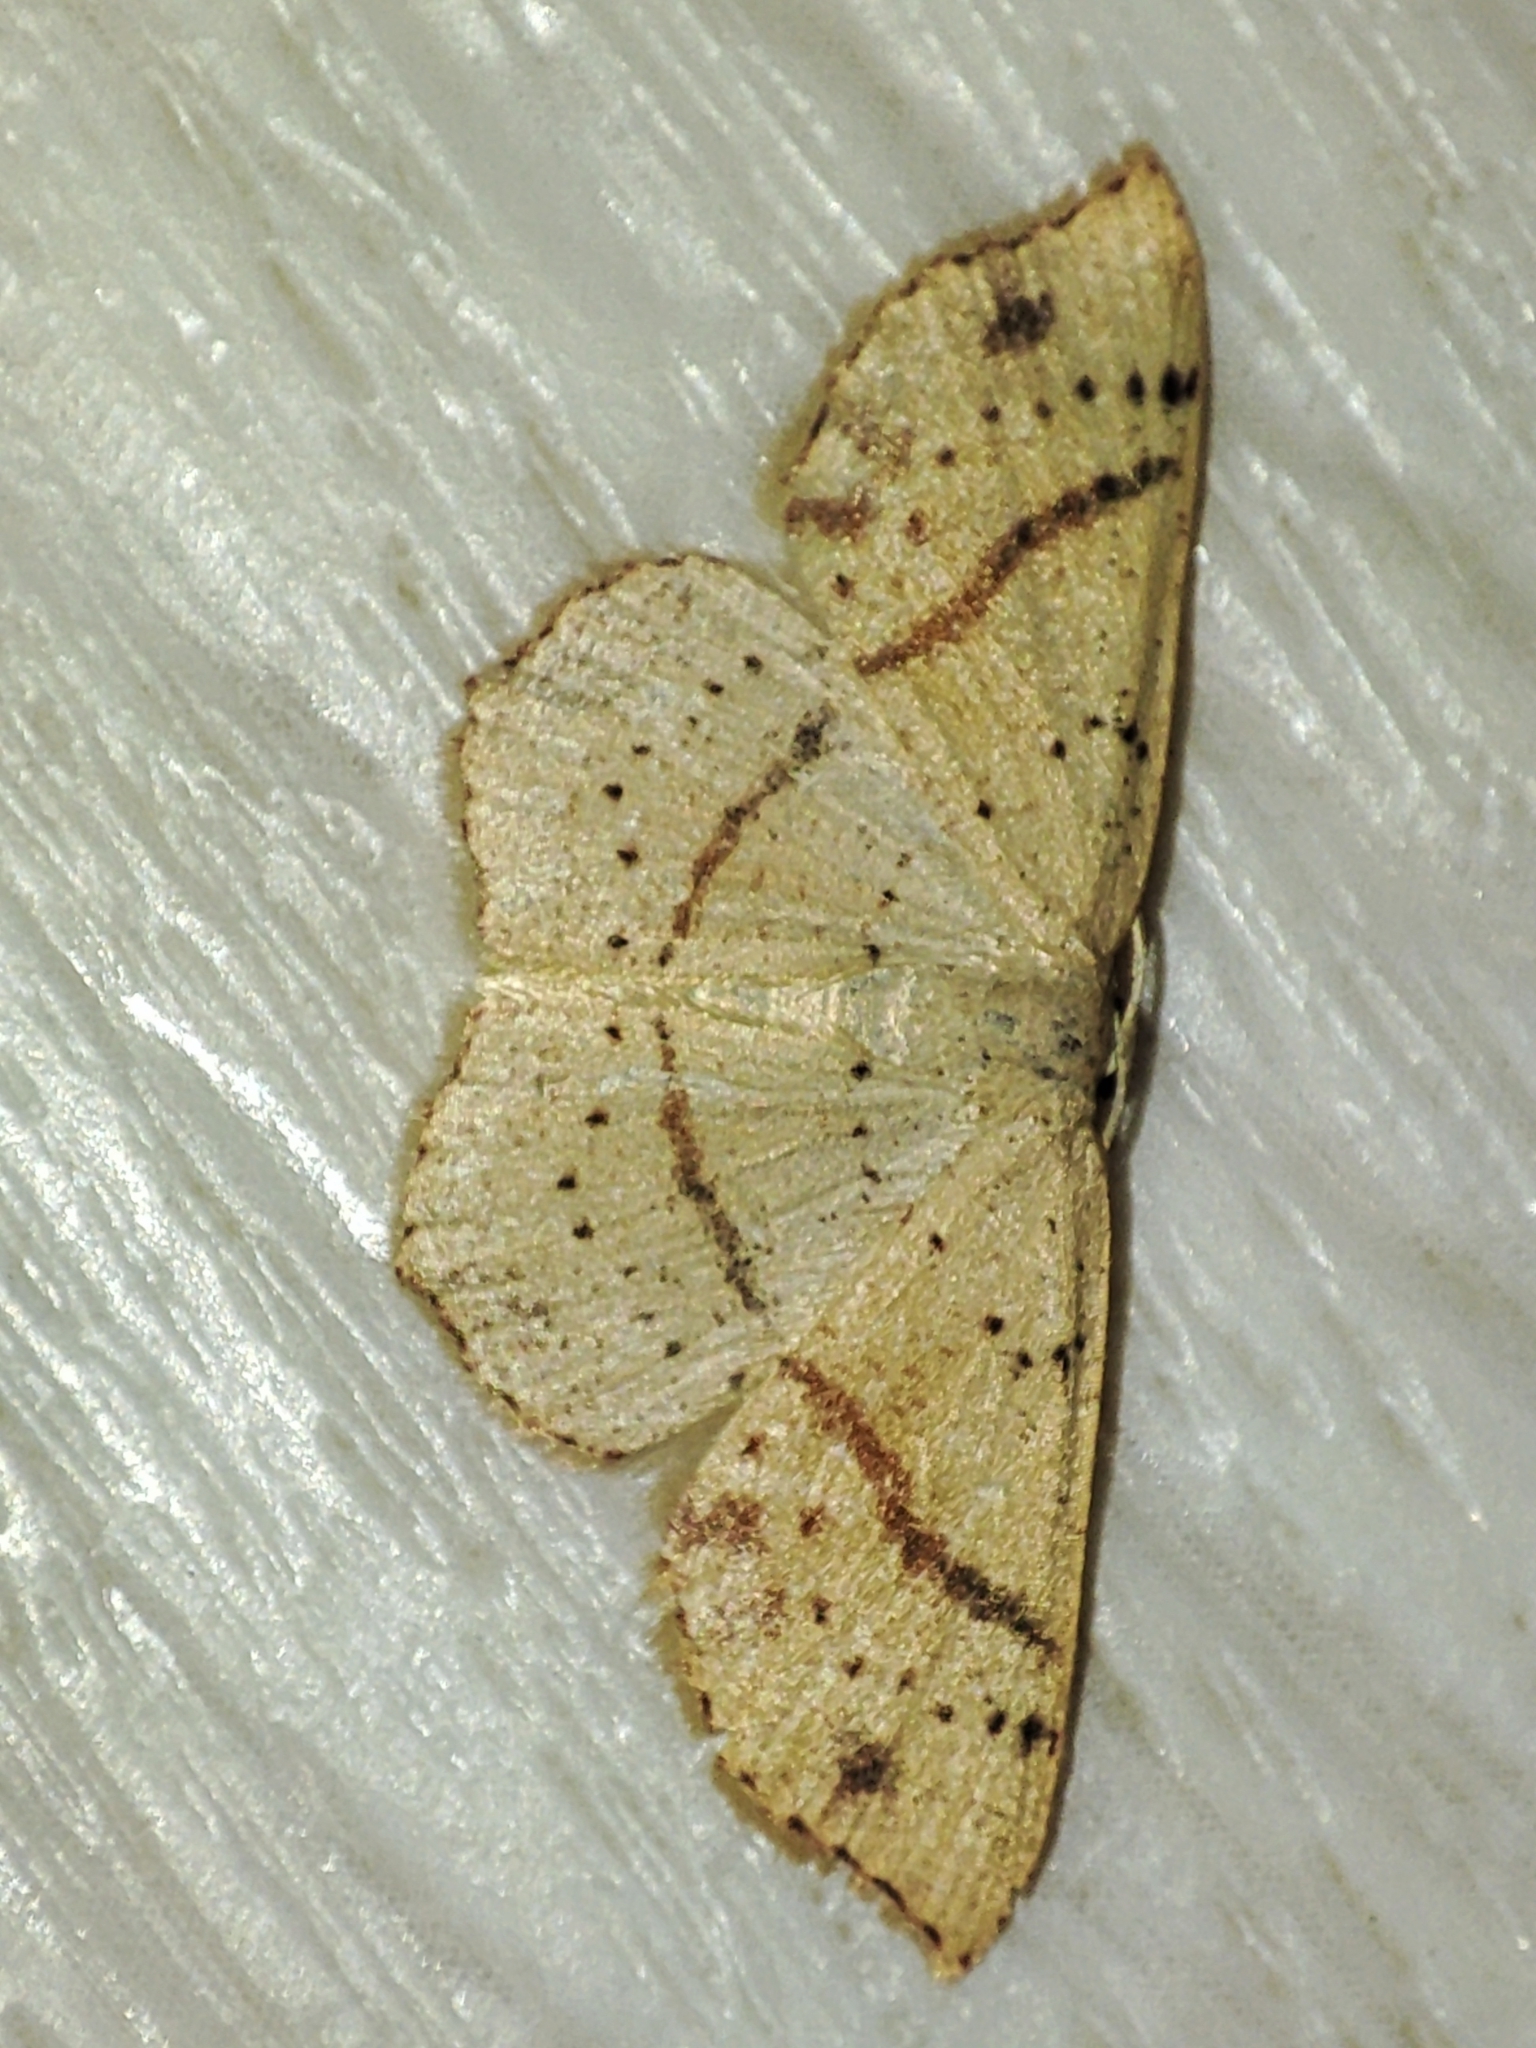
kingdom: Animalia
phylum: Arthropoda
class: Insecta
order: Lepidoptera
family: Geometridae
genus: Cyclophora
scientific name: Cyclophora punctaria
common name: Maiden's blush
